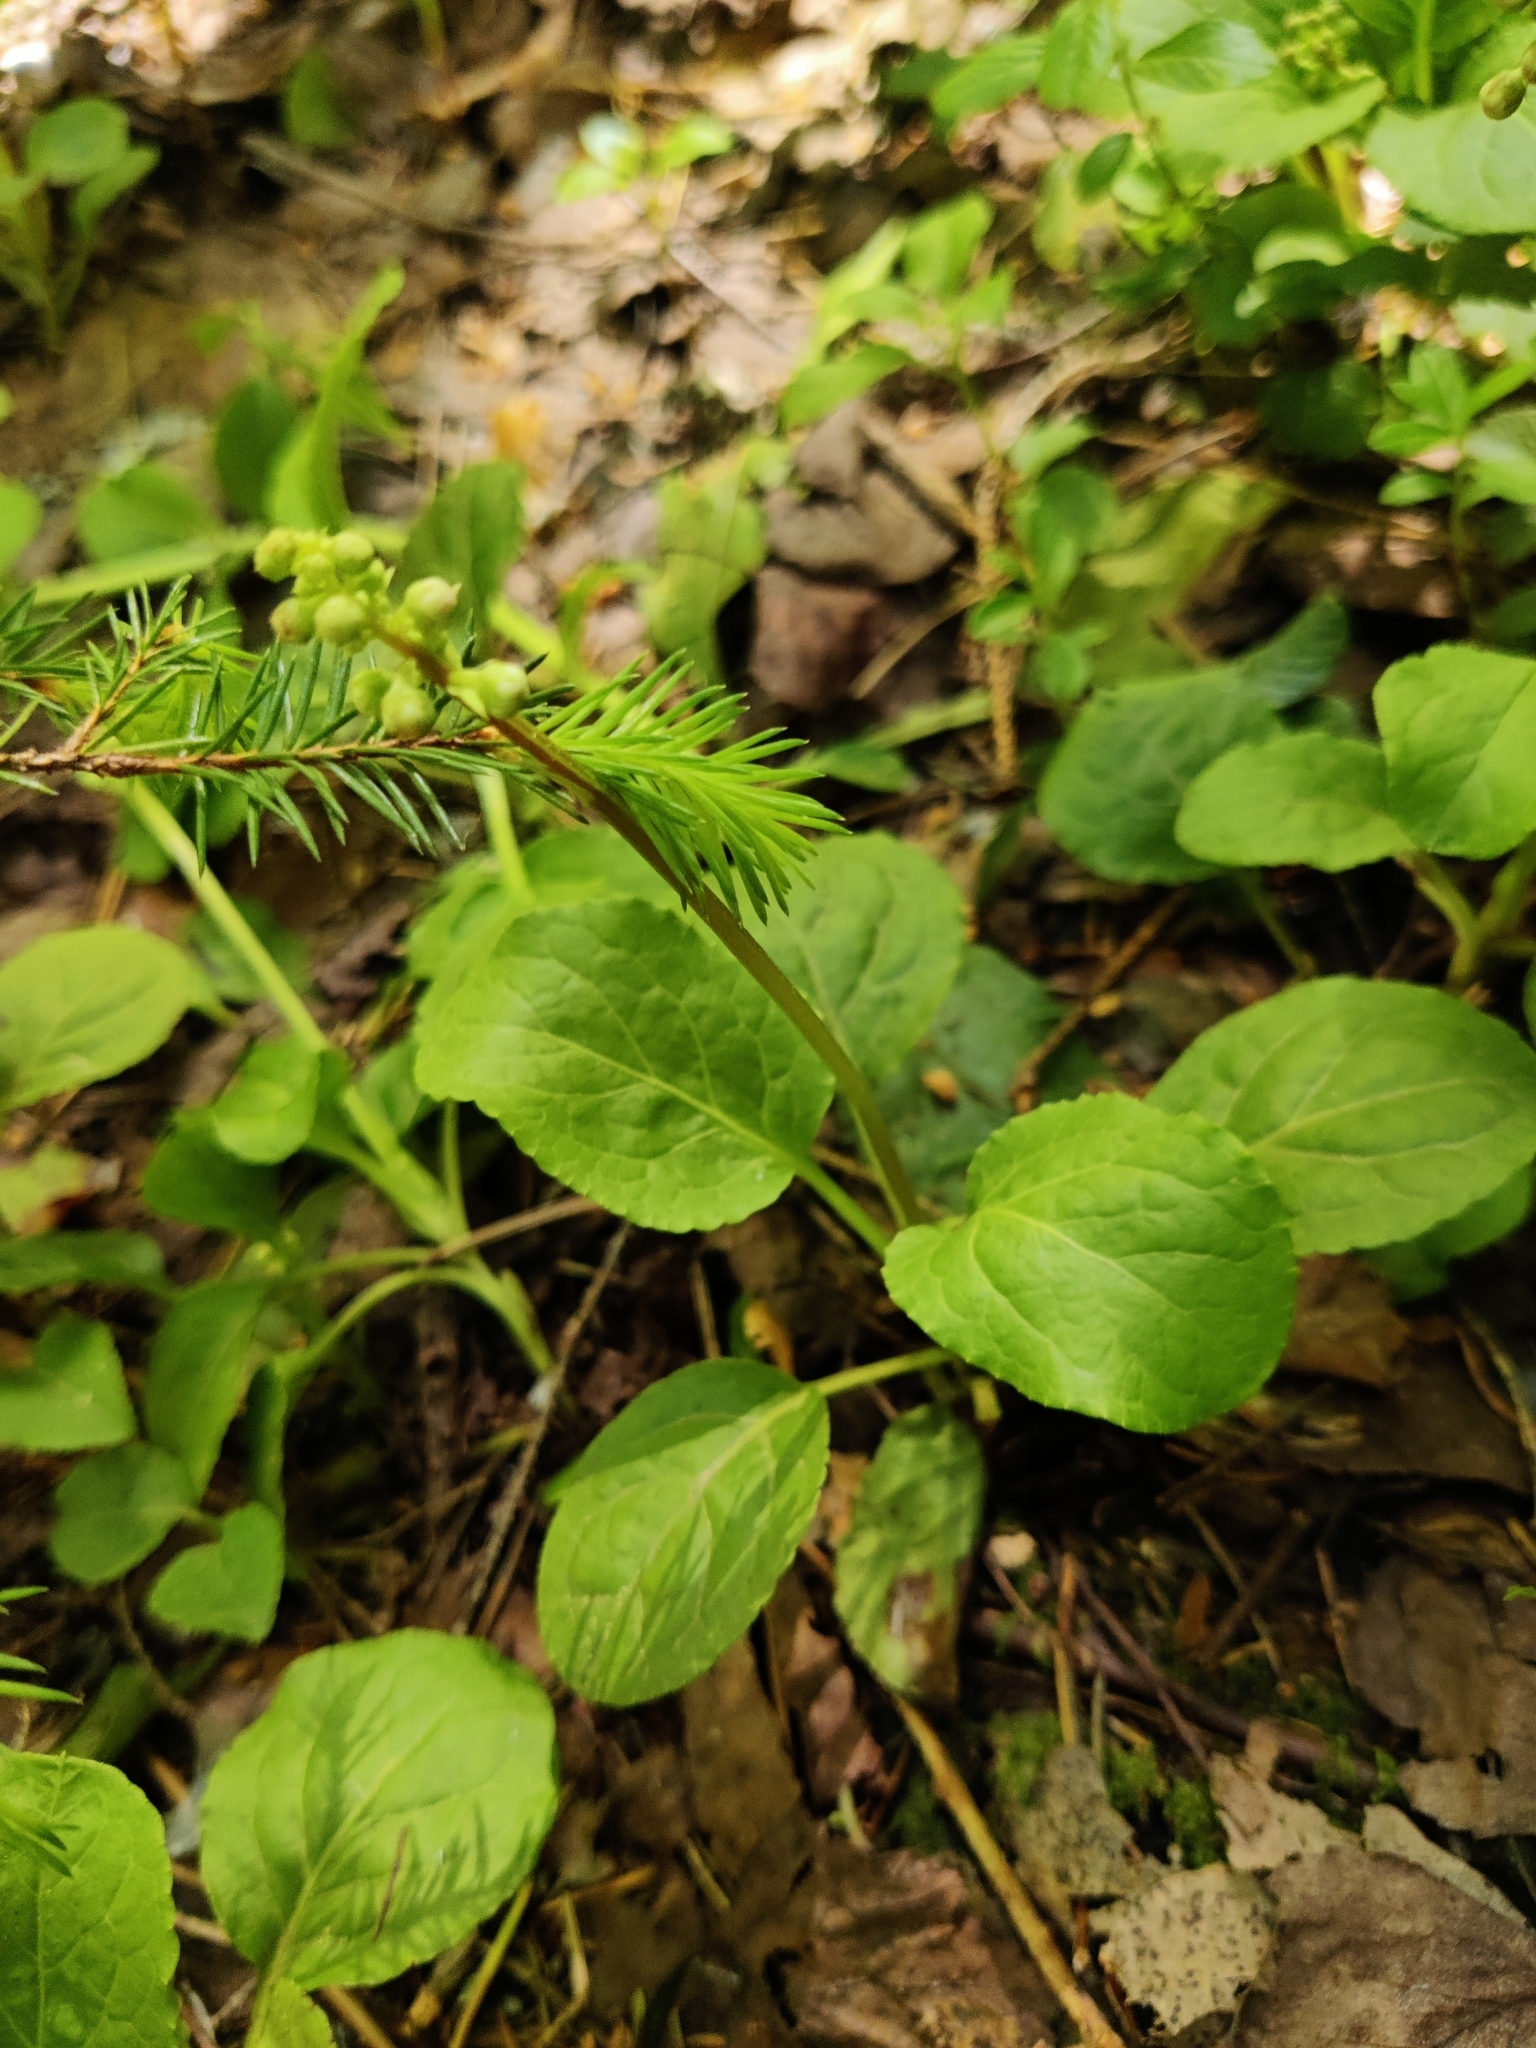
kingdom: Plantae
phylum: Tracheophyta
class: Magnoliopsida
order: Ericales
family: Ericaceae
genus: Pyrola
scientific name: Pyrola minor
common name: Common wintergreen
